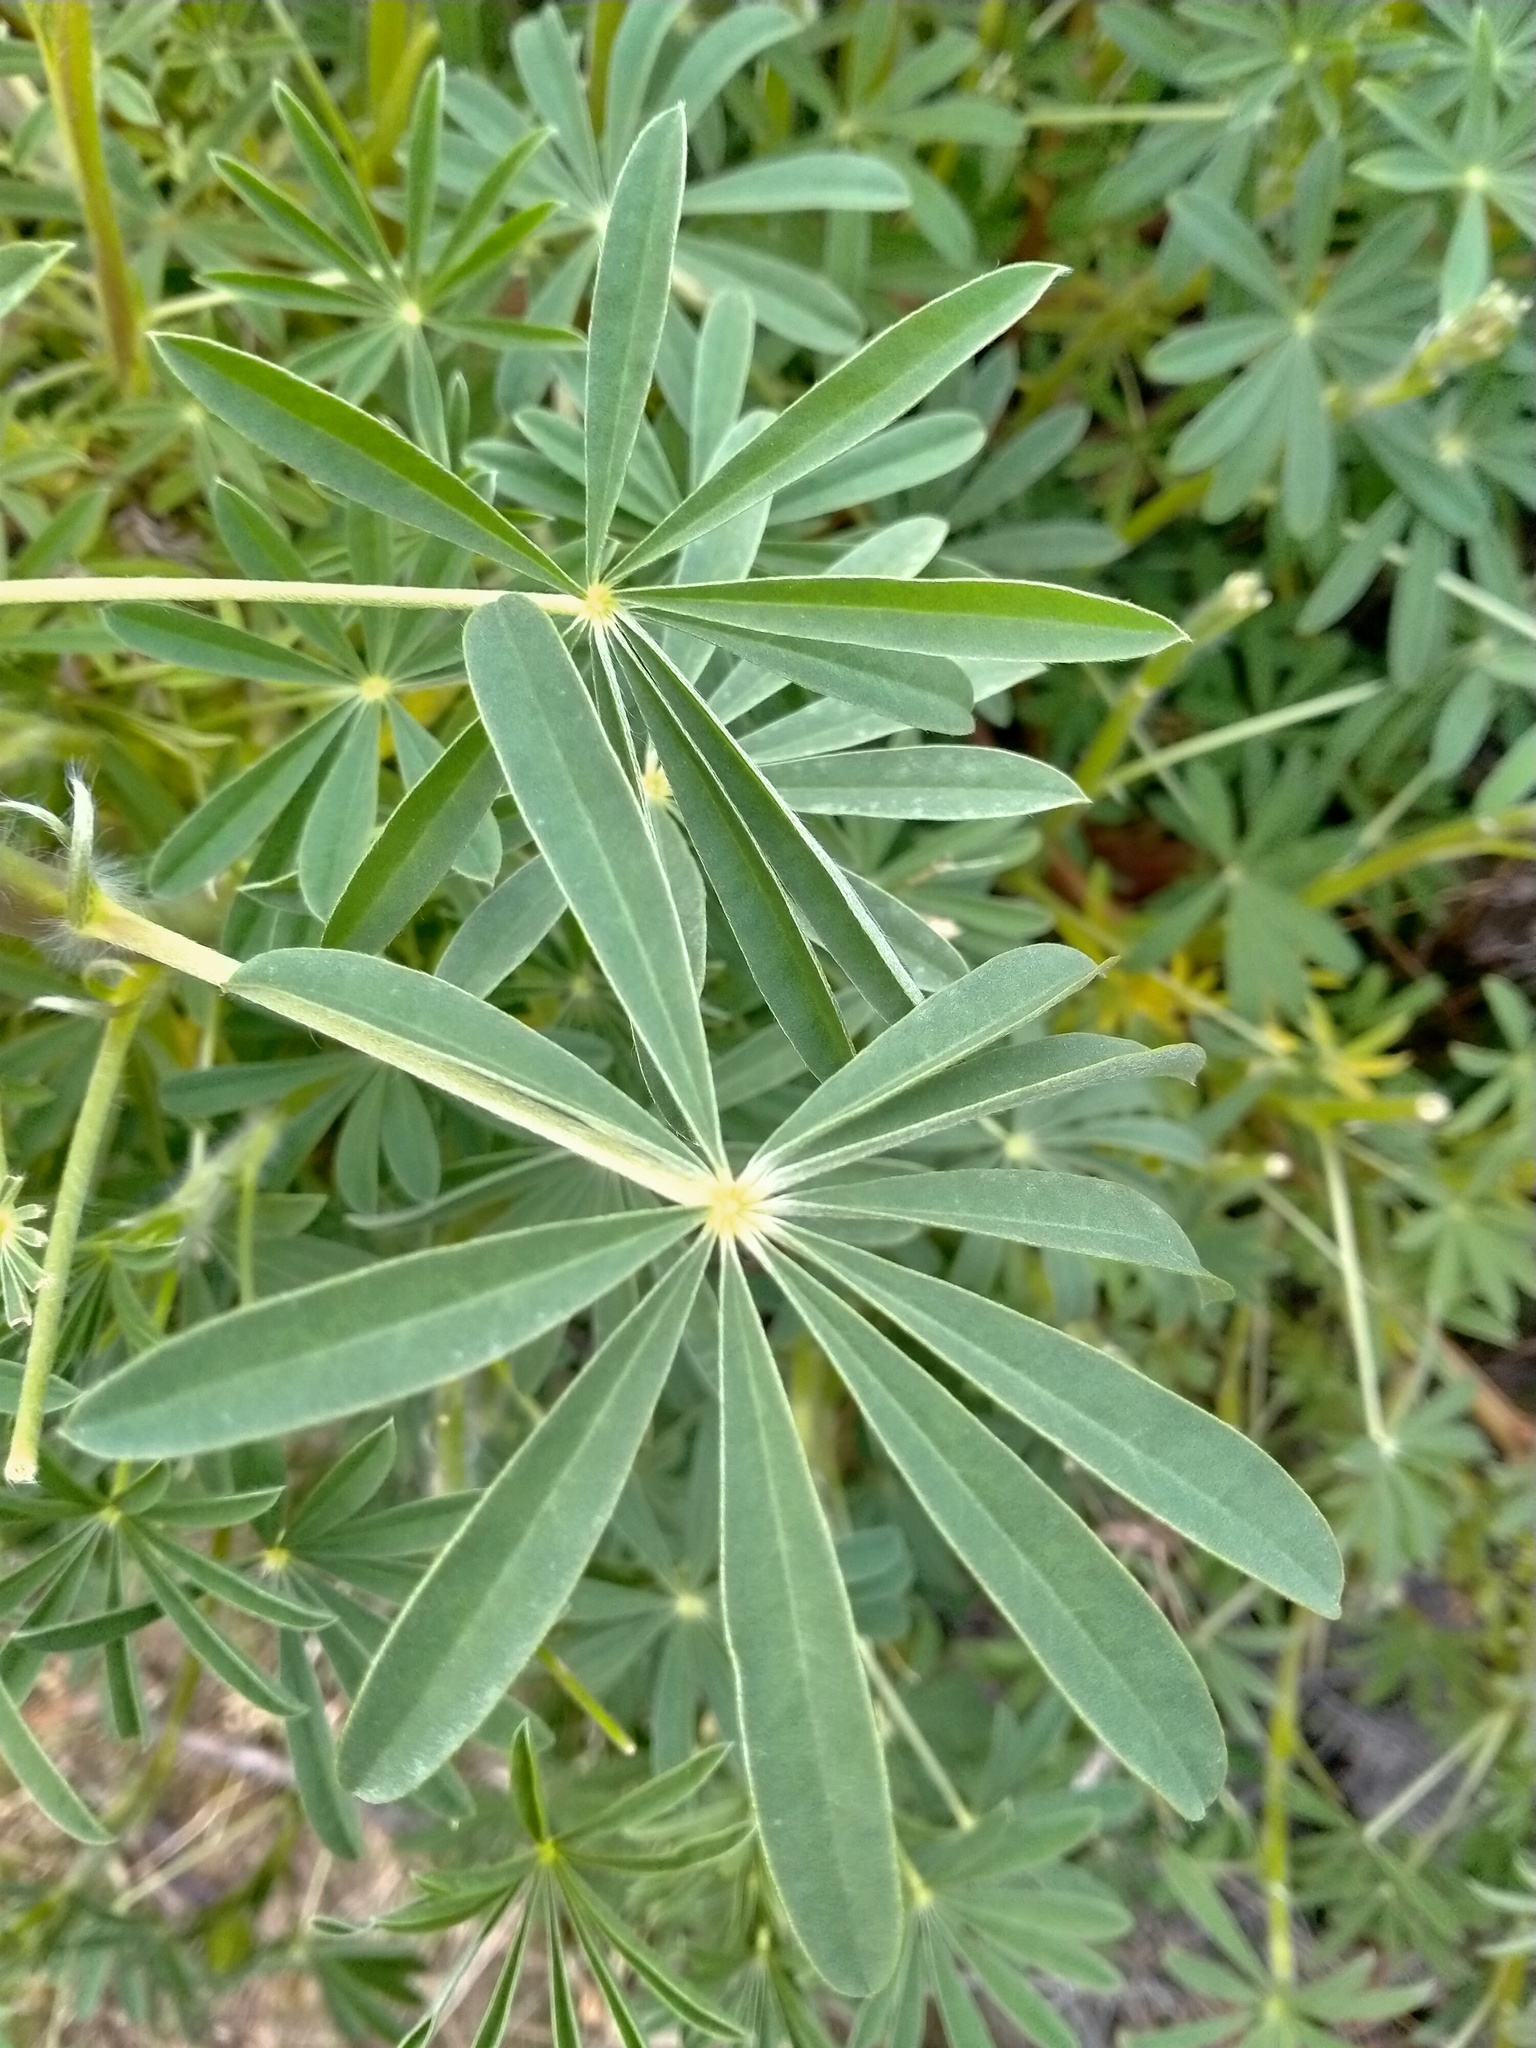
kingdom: Plantae
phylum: Tracheophyta
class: Magnoliopsida
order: Fabales
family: Fabaceae
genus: Lupinus
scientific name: Lupinus arboreus
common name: Yellow bush lupine
